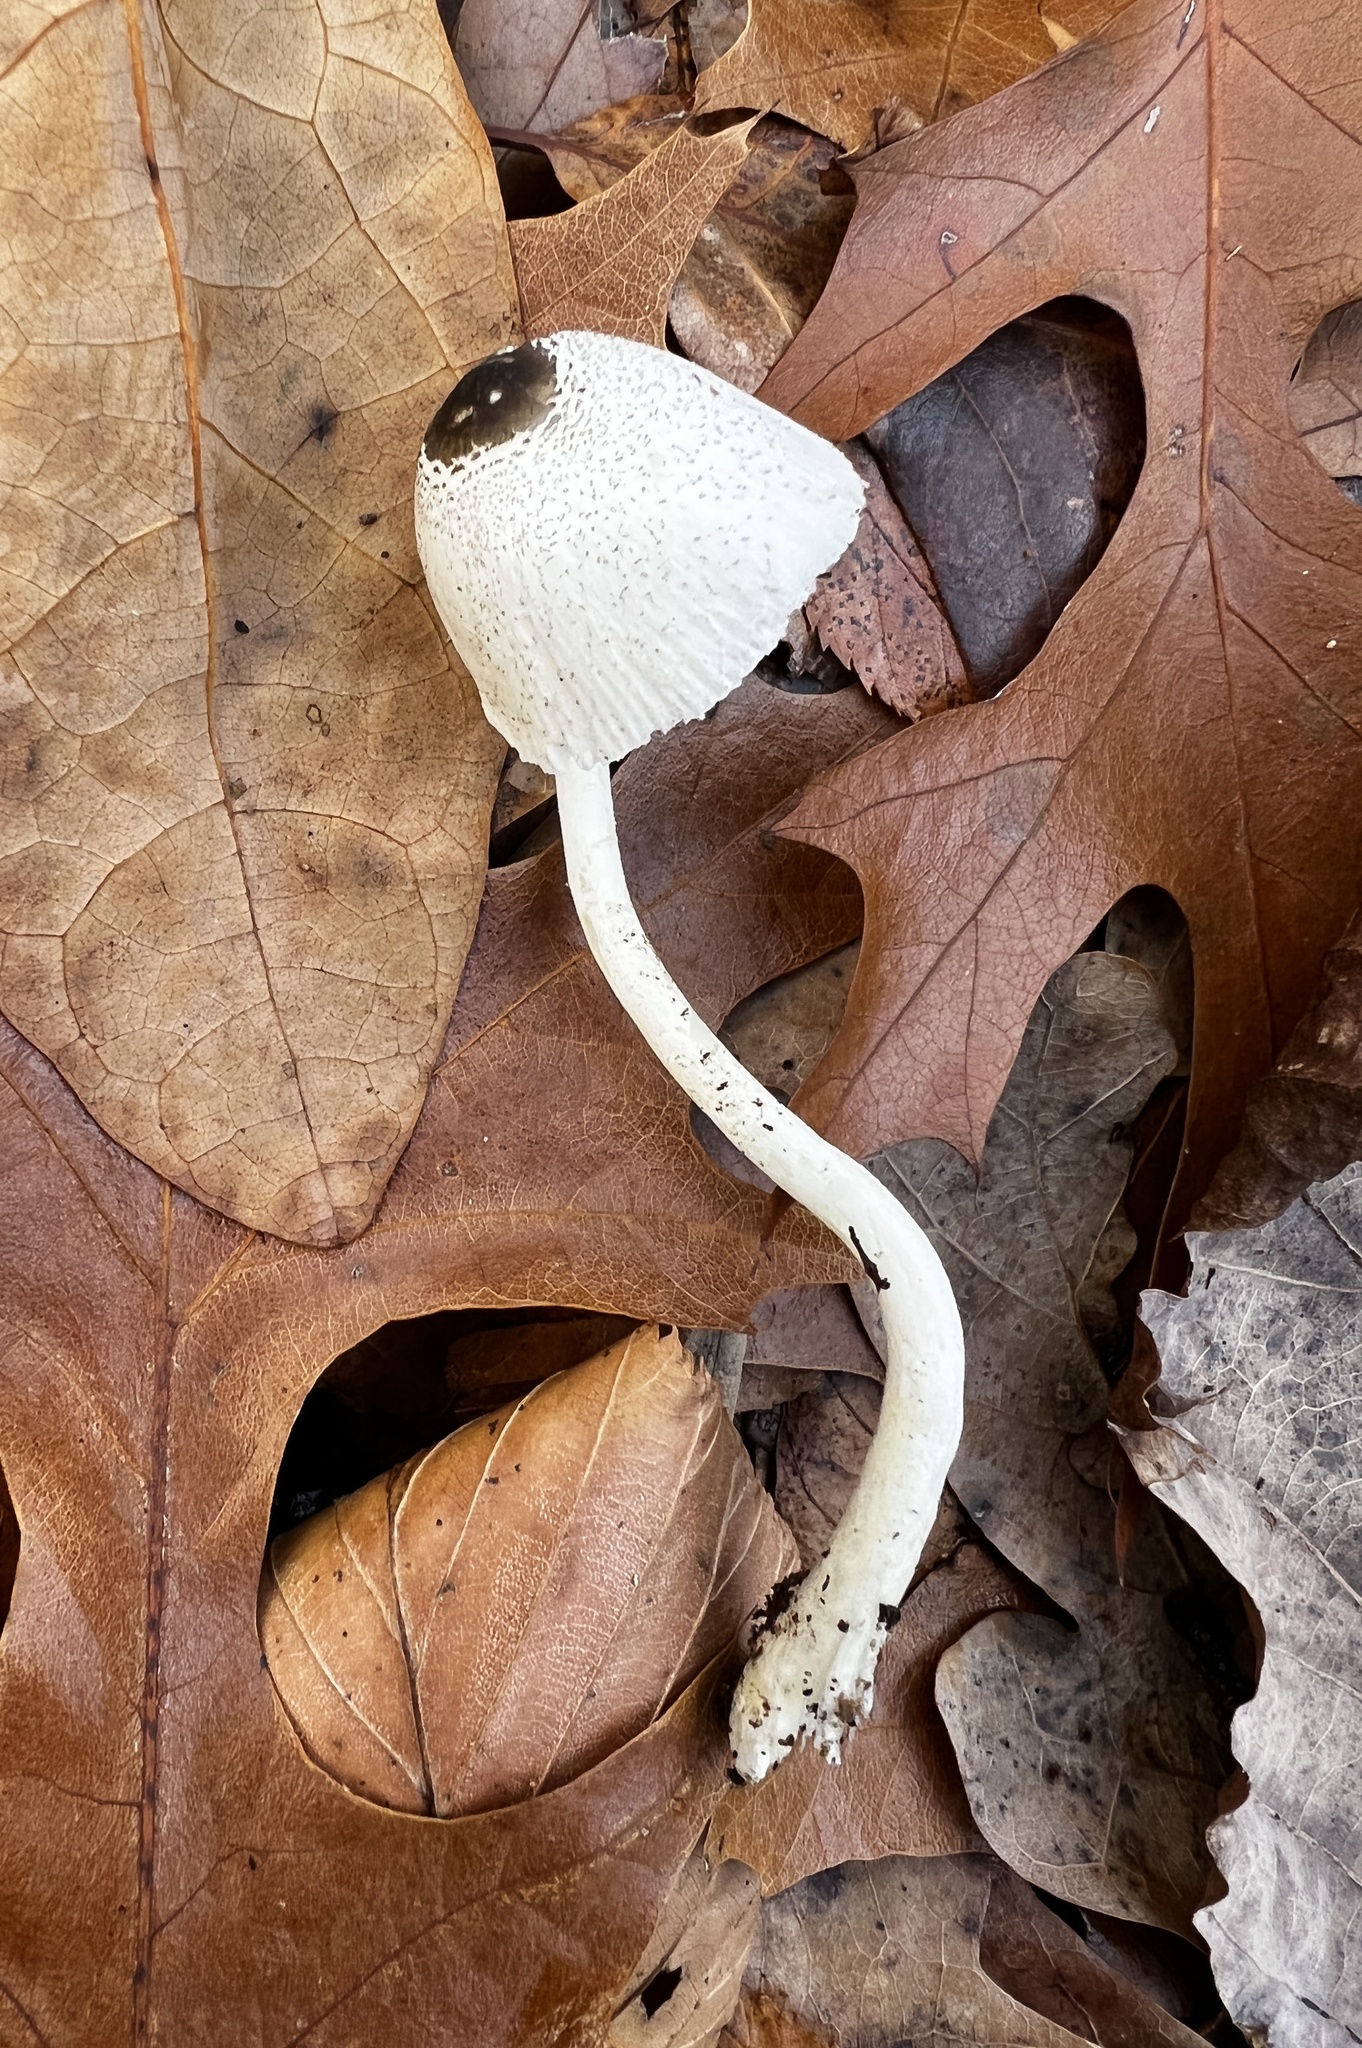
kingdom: Fungi
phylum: Basidiomycota
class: Agaricomycetes
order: Agaricales
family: Agaricaceae
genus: Leucocoprinus
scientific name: Leucocoprinus brebissonii
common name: Skullcap dapperling
